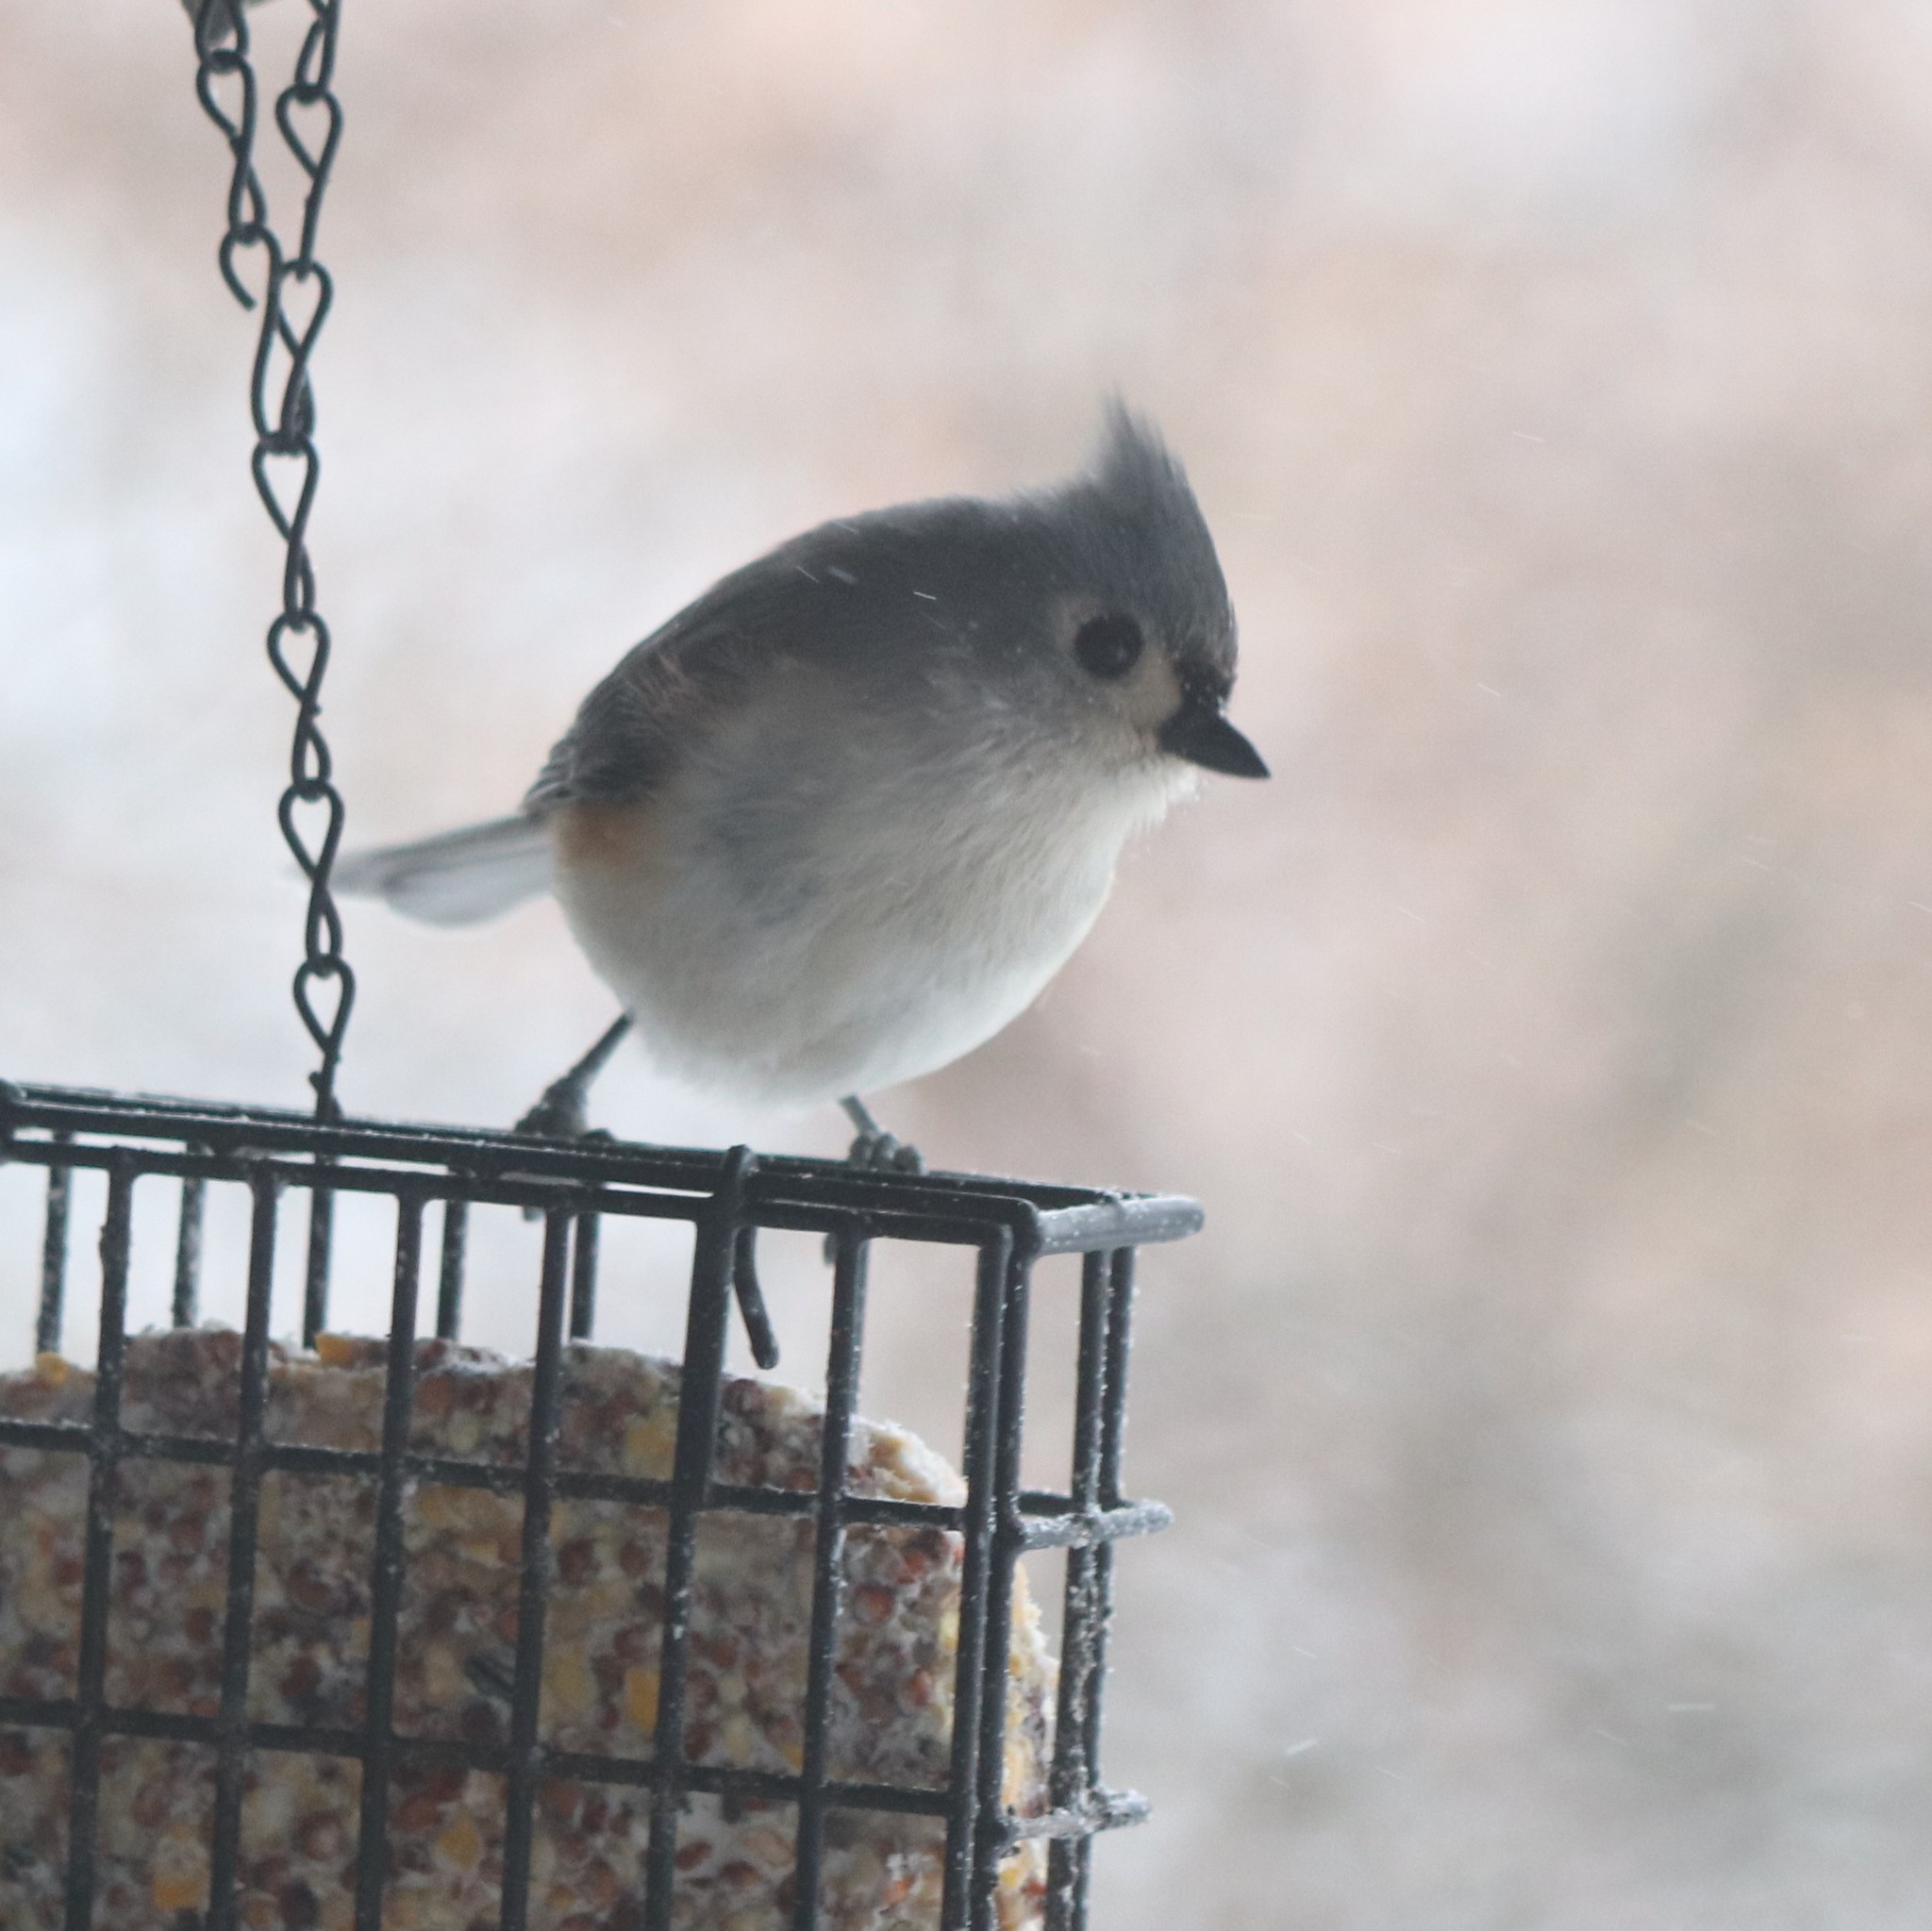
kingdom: Animalia
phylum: Chordata
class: Aves
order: Passeriformes
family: Paridae
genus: Baeolophus
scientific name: Baeolophus bicolor
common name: Tufted titmouse
